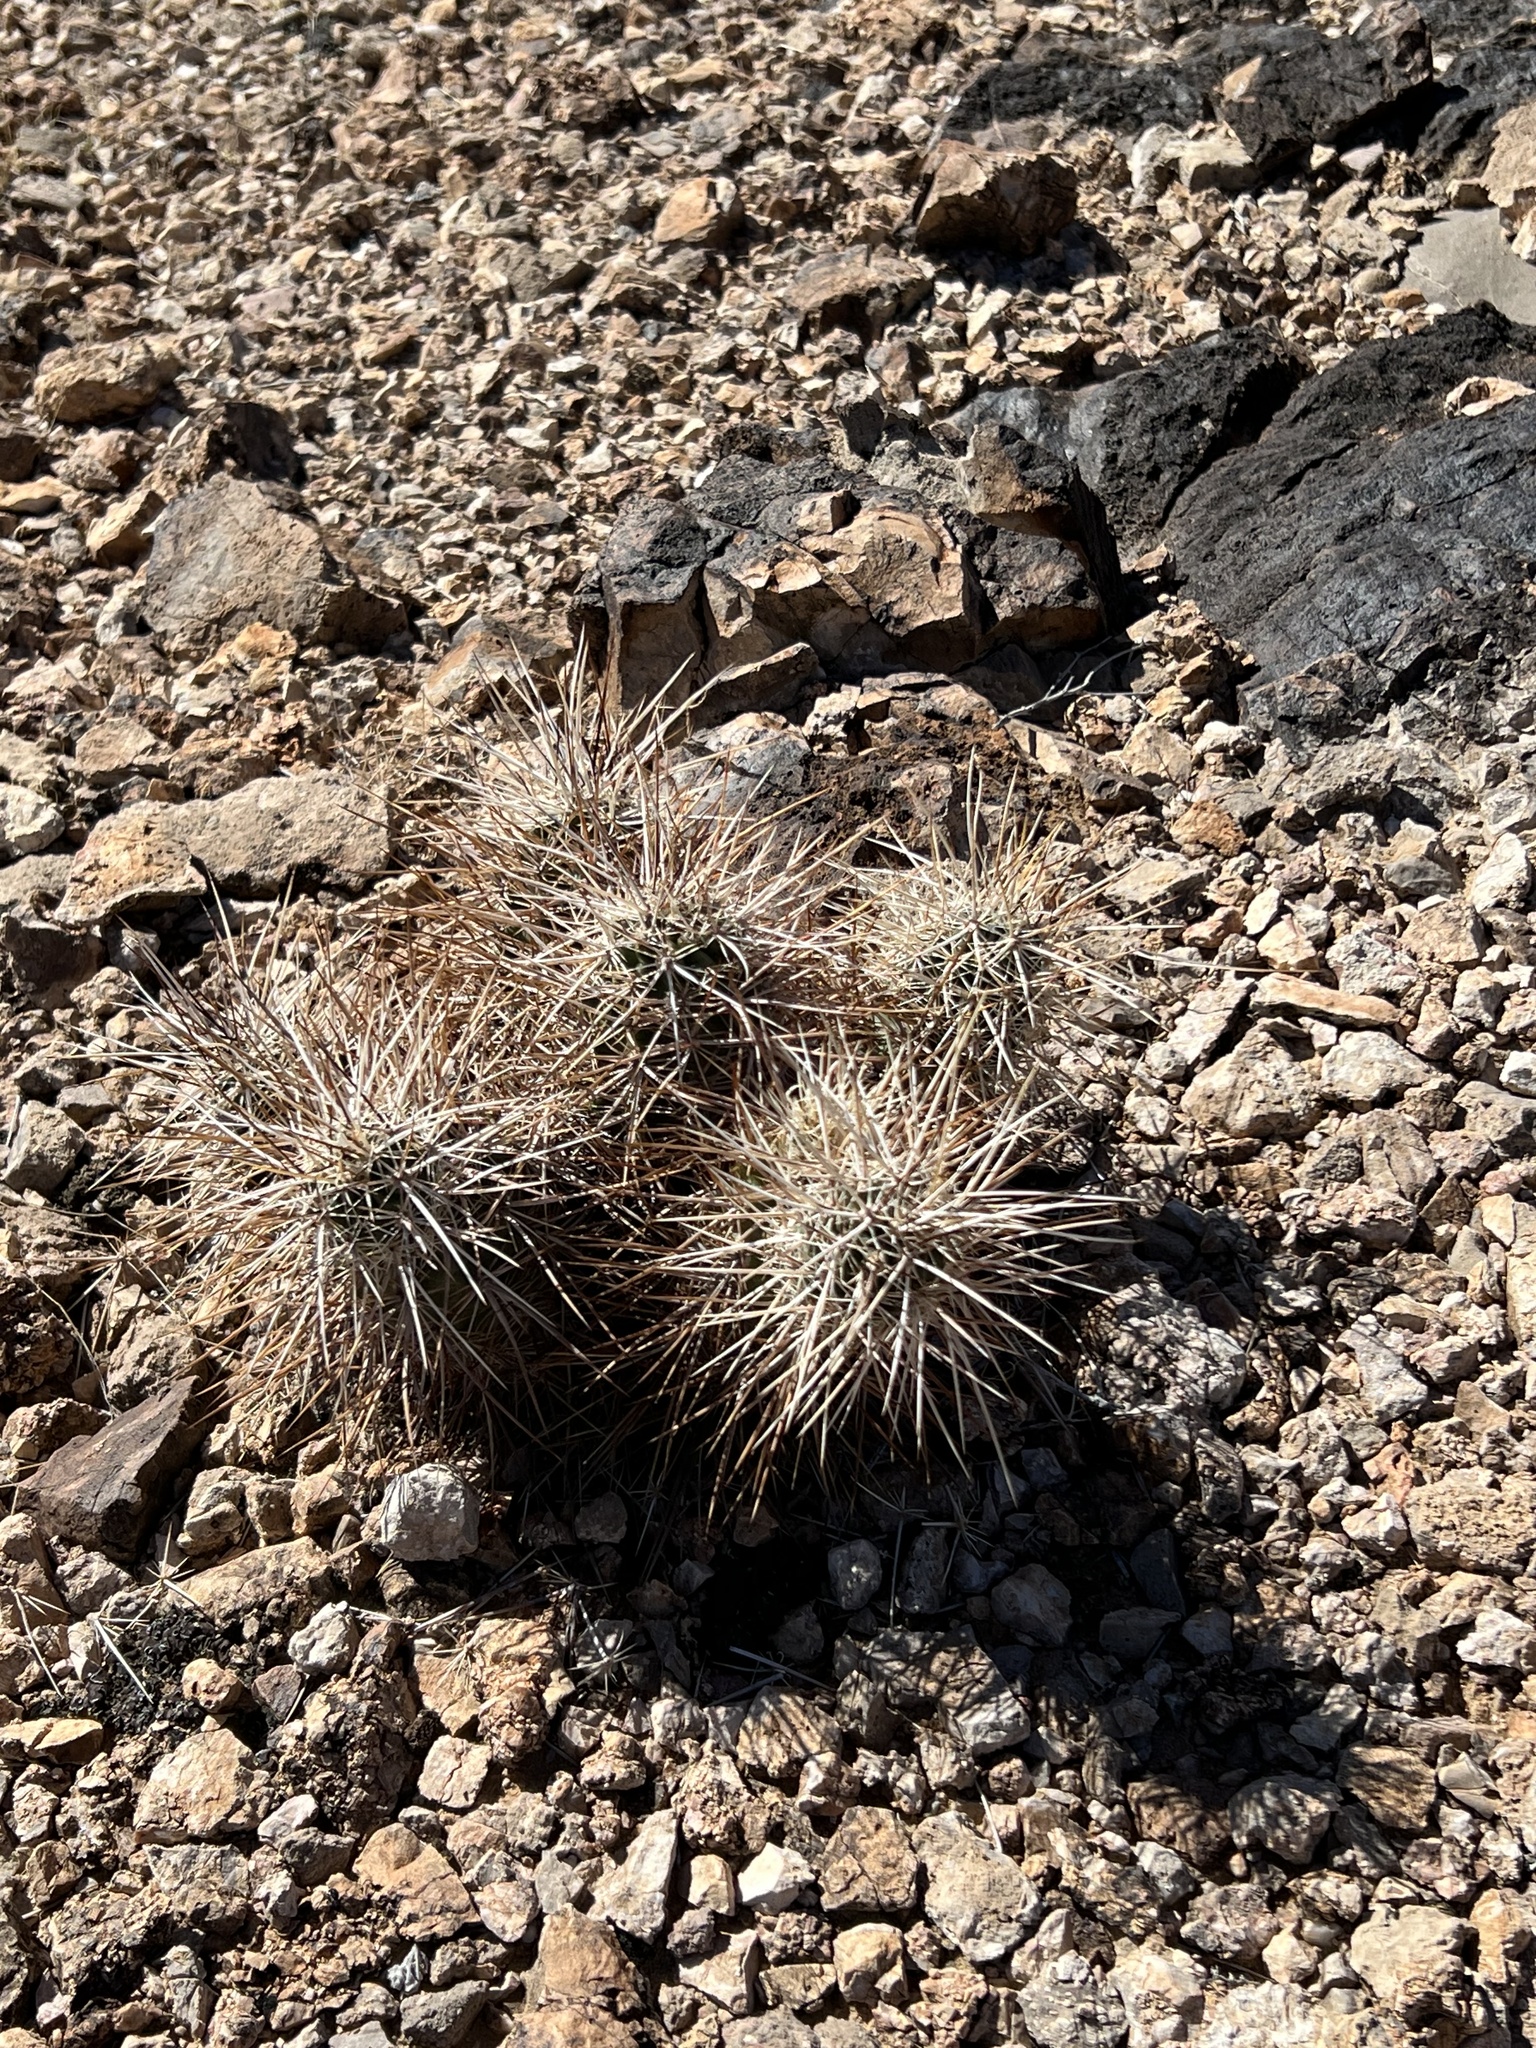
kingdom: Plantae
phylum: Tracheophyta
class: Magnoliopsida
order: Caryophyllales
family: Cactaceae
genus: Echinocereus
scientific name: Echinocereus engelmannii
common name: Engelmann's hedgehog cactus
